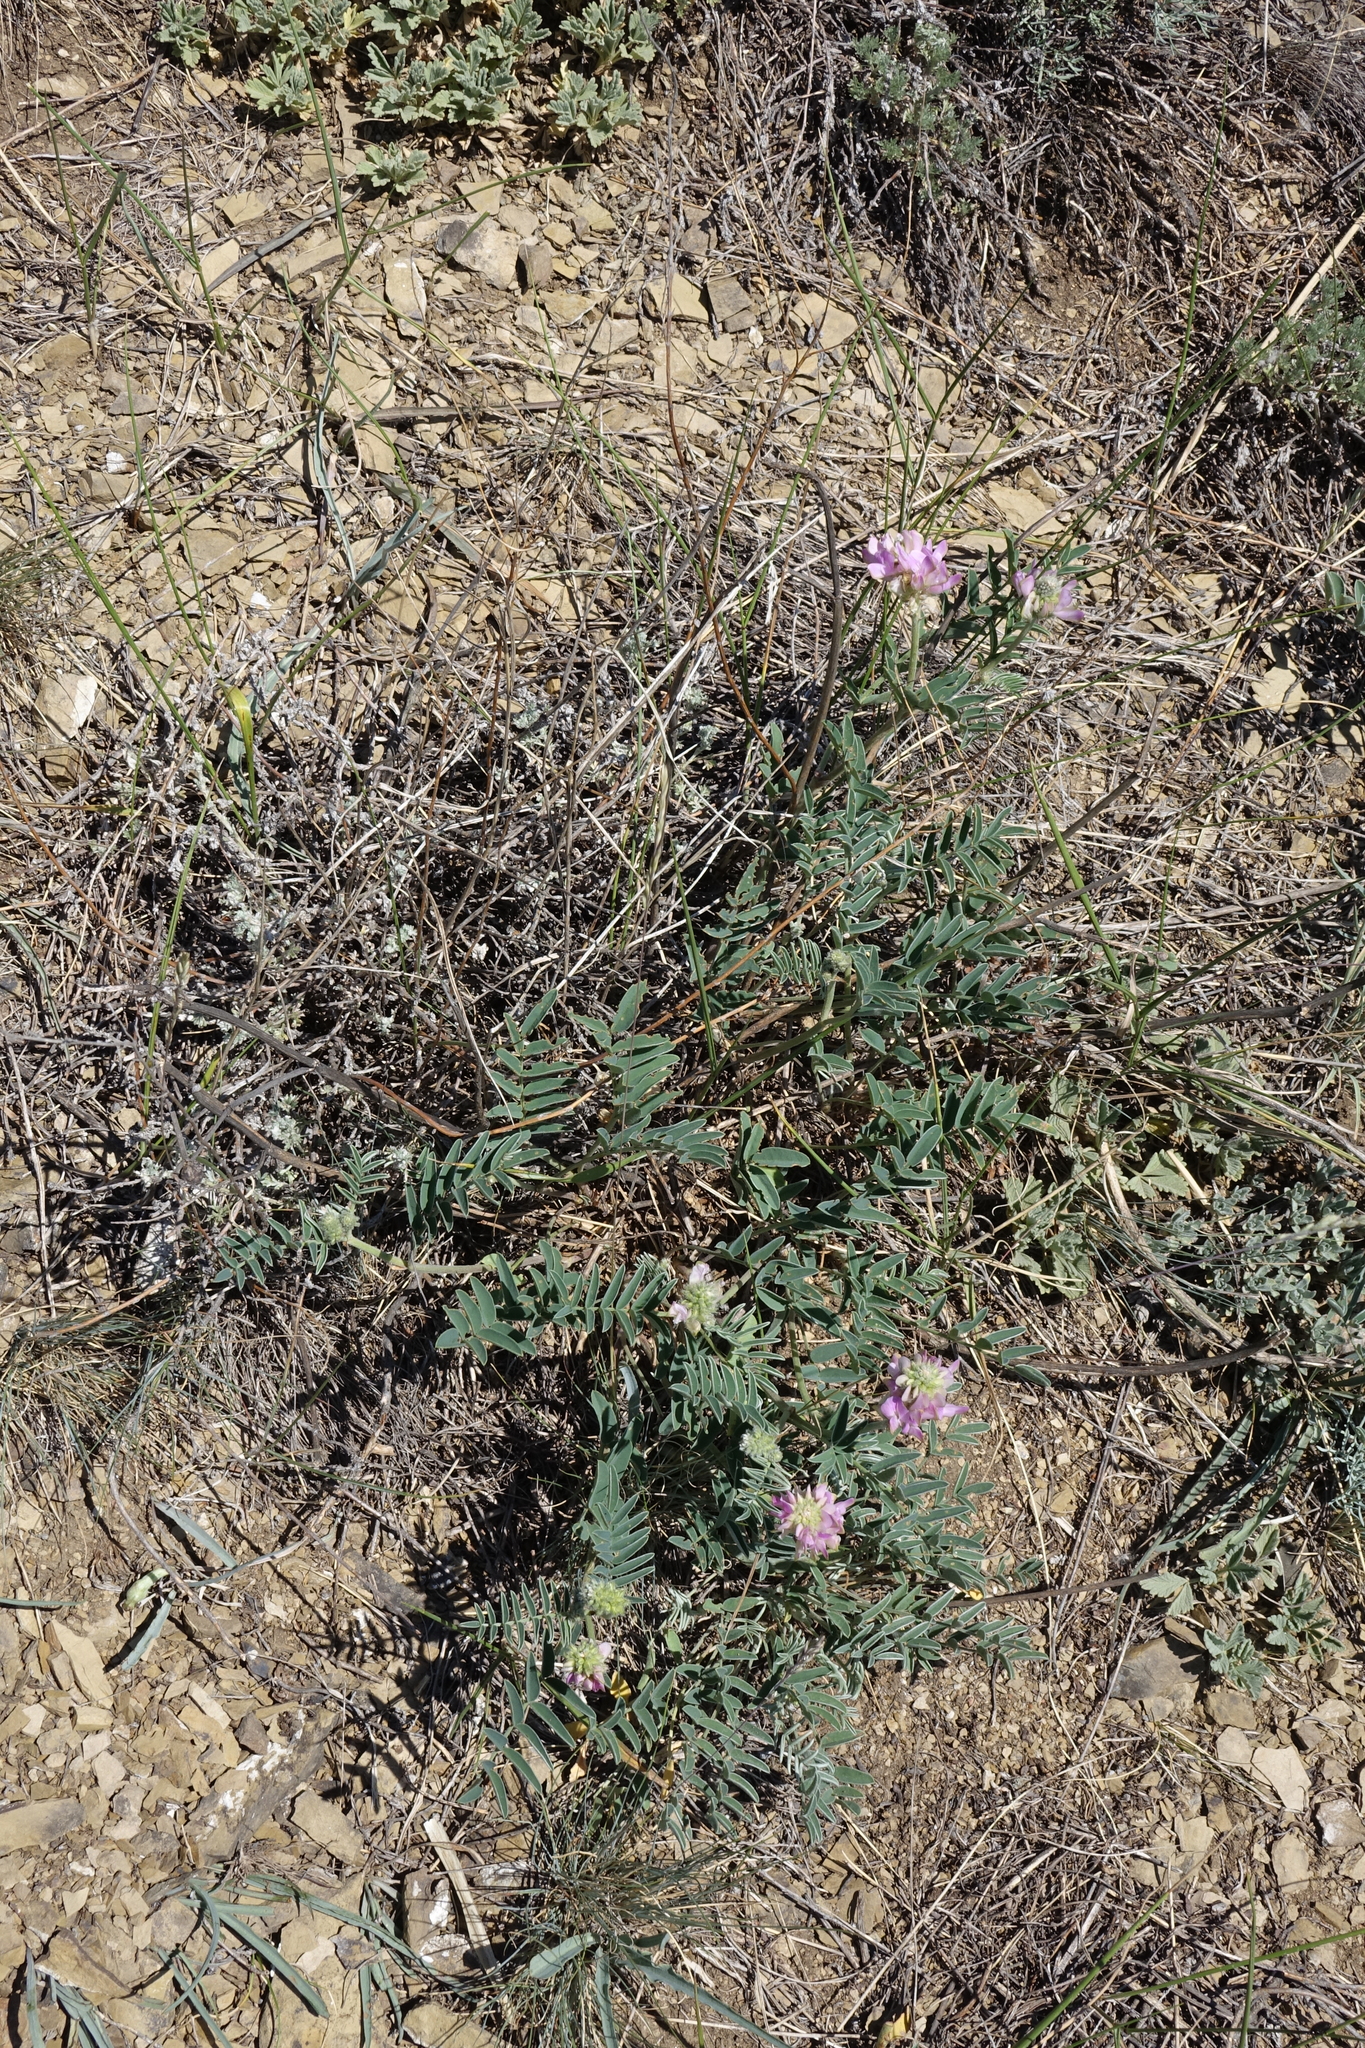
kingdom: Plantae
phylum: Tracheophyta
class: Magnoliopsida
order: Fabales
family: Fabaceae
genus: Hedysarum
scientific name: Hedysarum gmelinii
